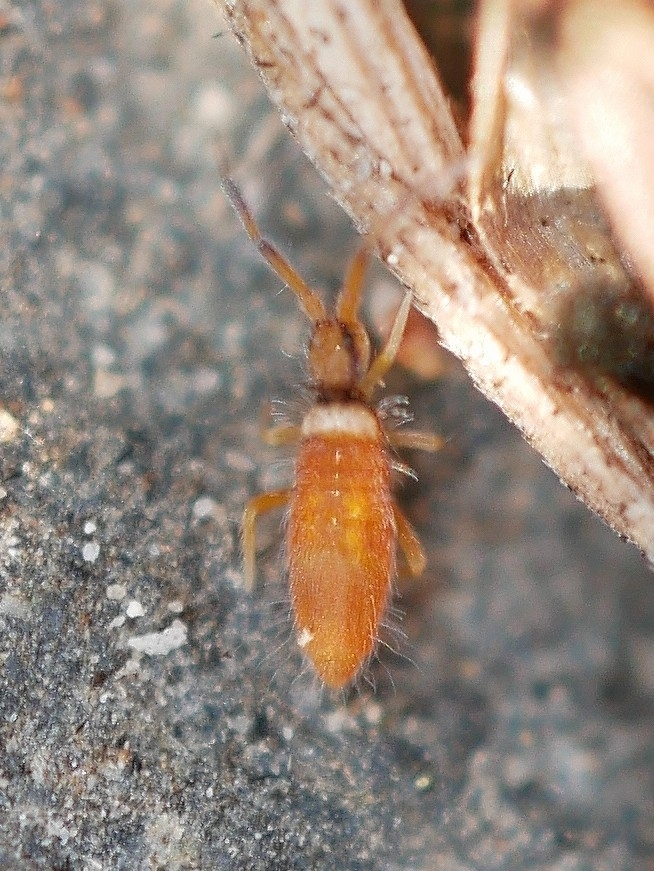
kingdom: Animalia
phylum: Arthropoda
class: Collembola
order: Entomobryomorpha
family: Entomobryidae
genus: Entomobrya
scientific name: Entomobrya atrocincta
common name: Springtail
